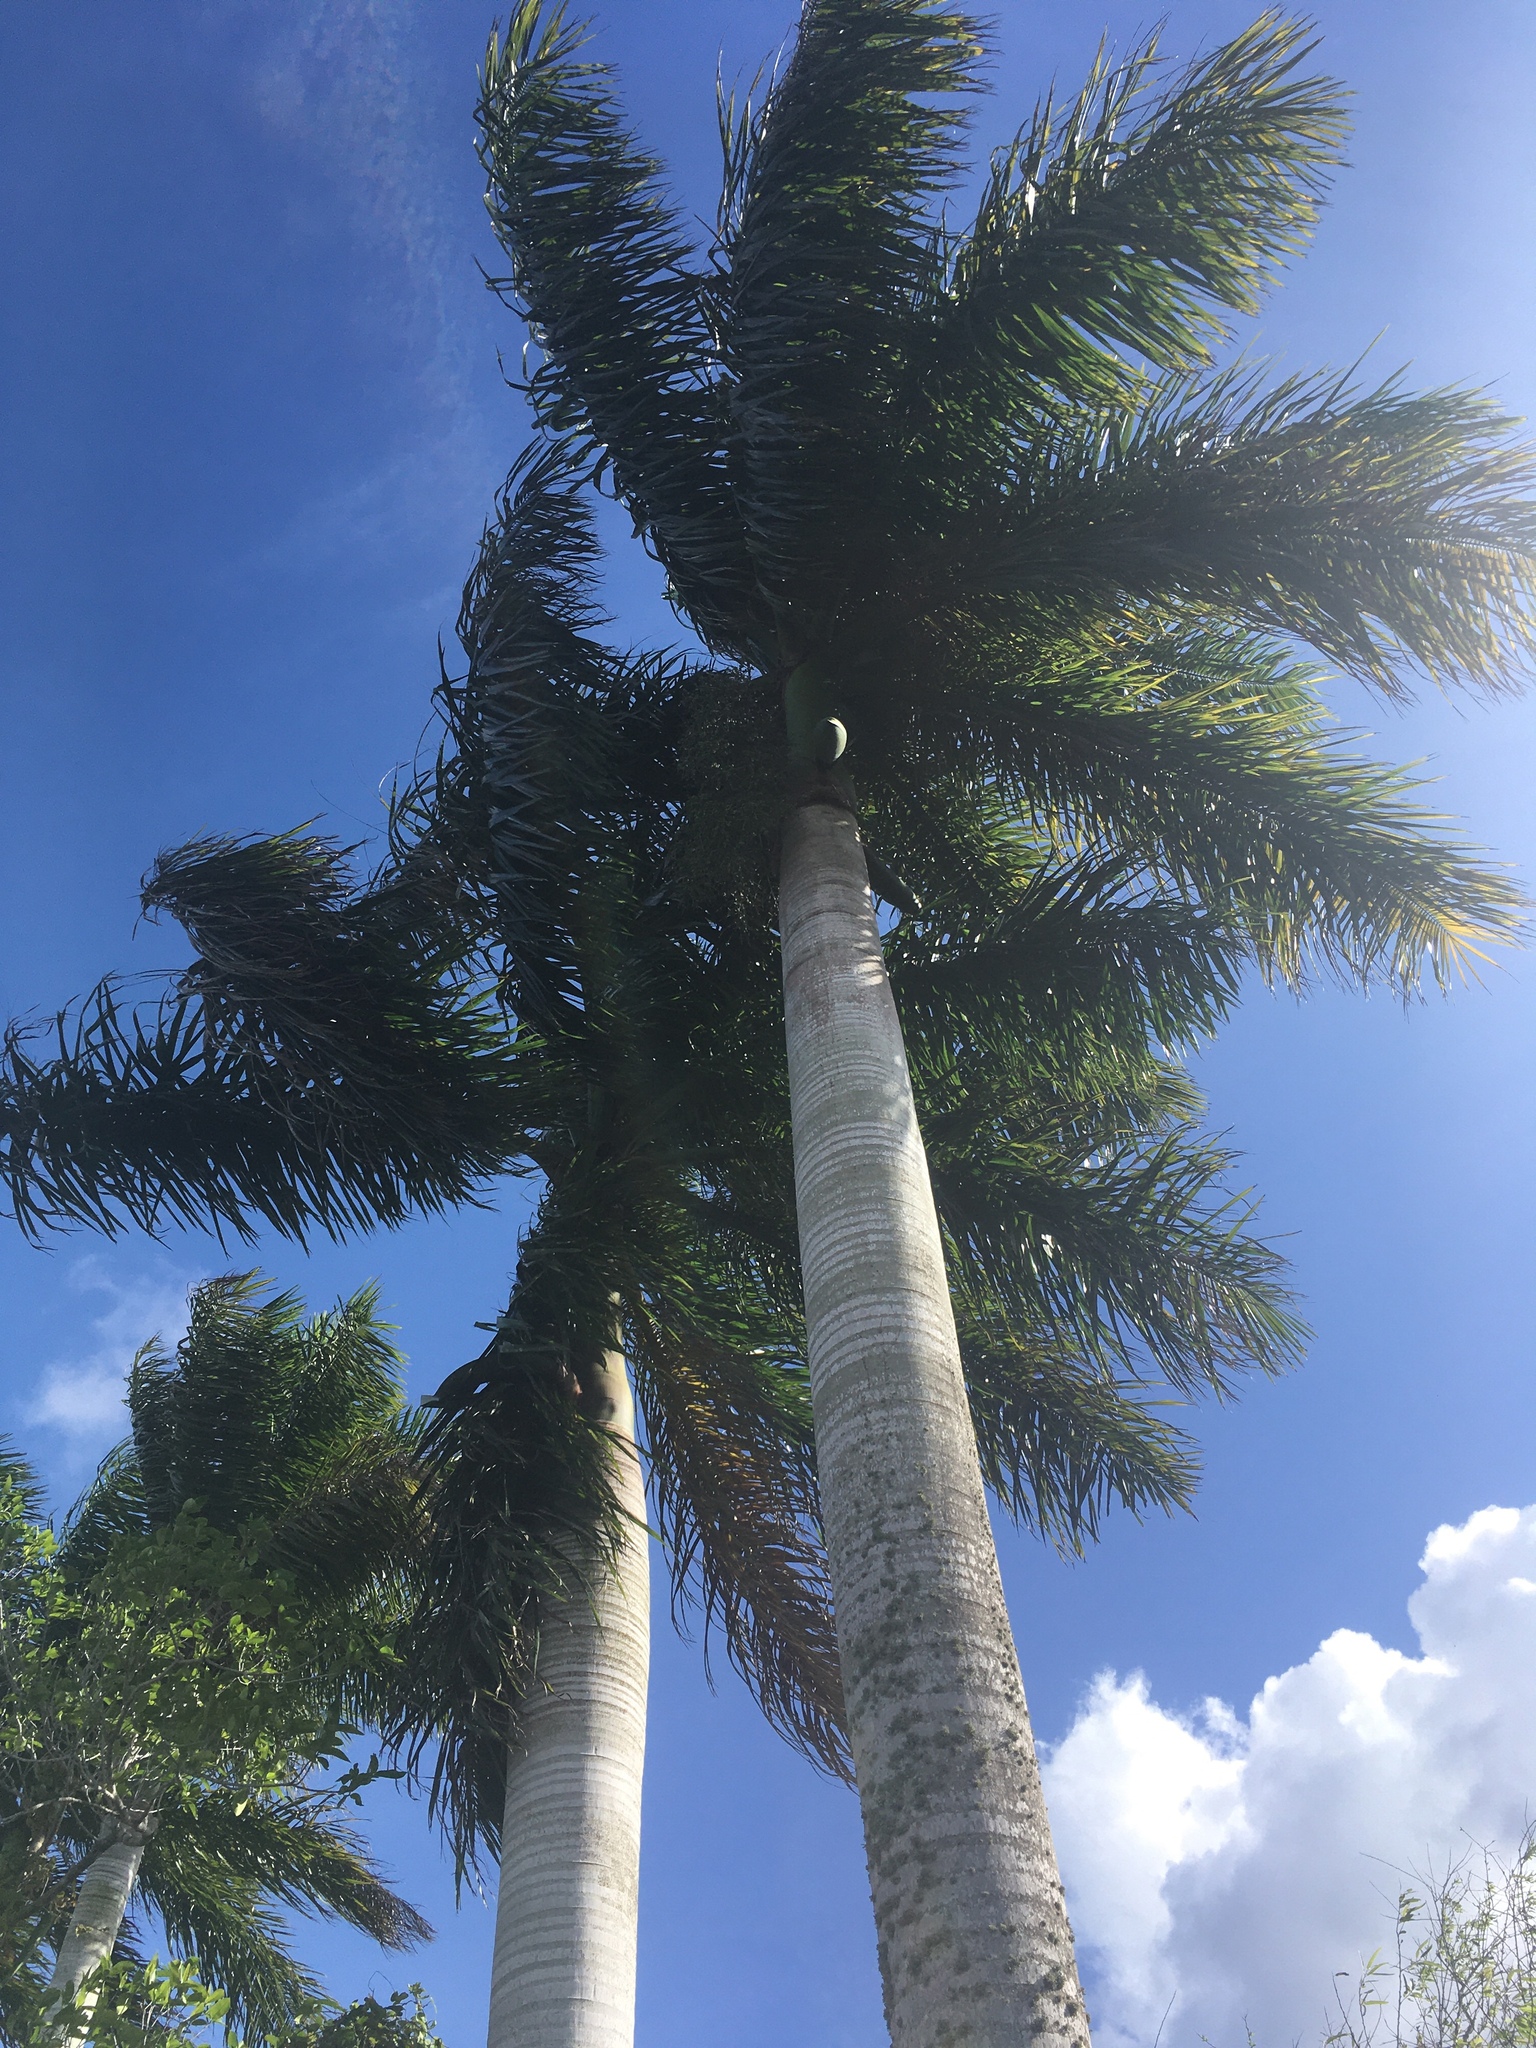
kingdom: Plantae
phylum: Tracheophyta
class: Liliopsida
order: Arecales
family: Arecaceae
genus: Roystonea
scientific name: Roystonea regia
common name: Florida royal palm
